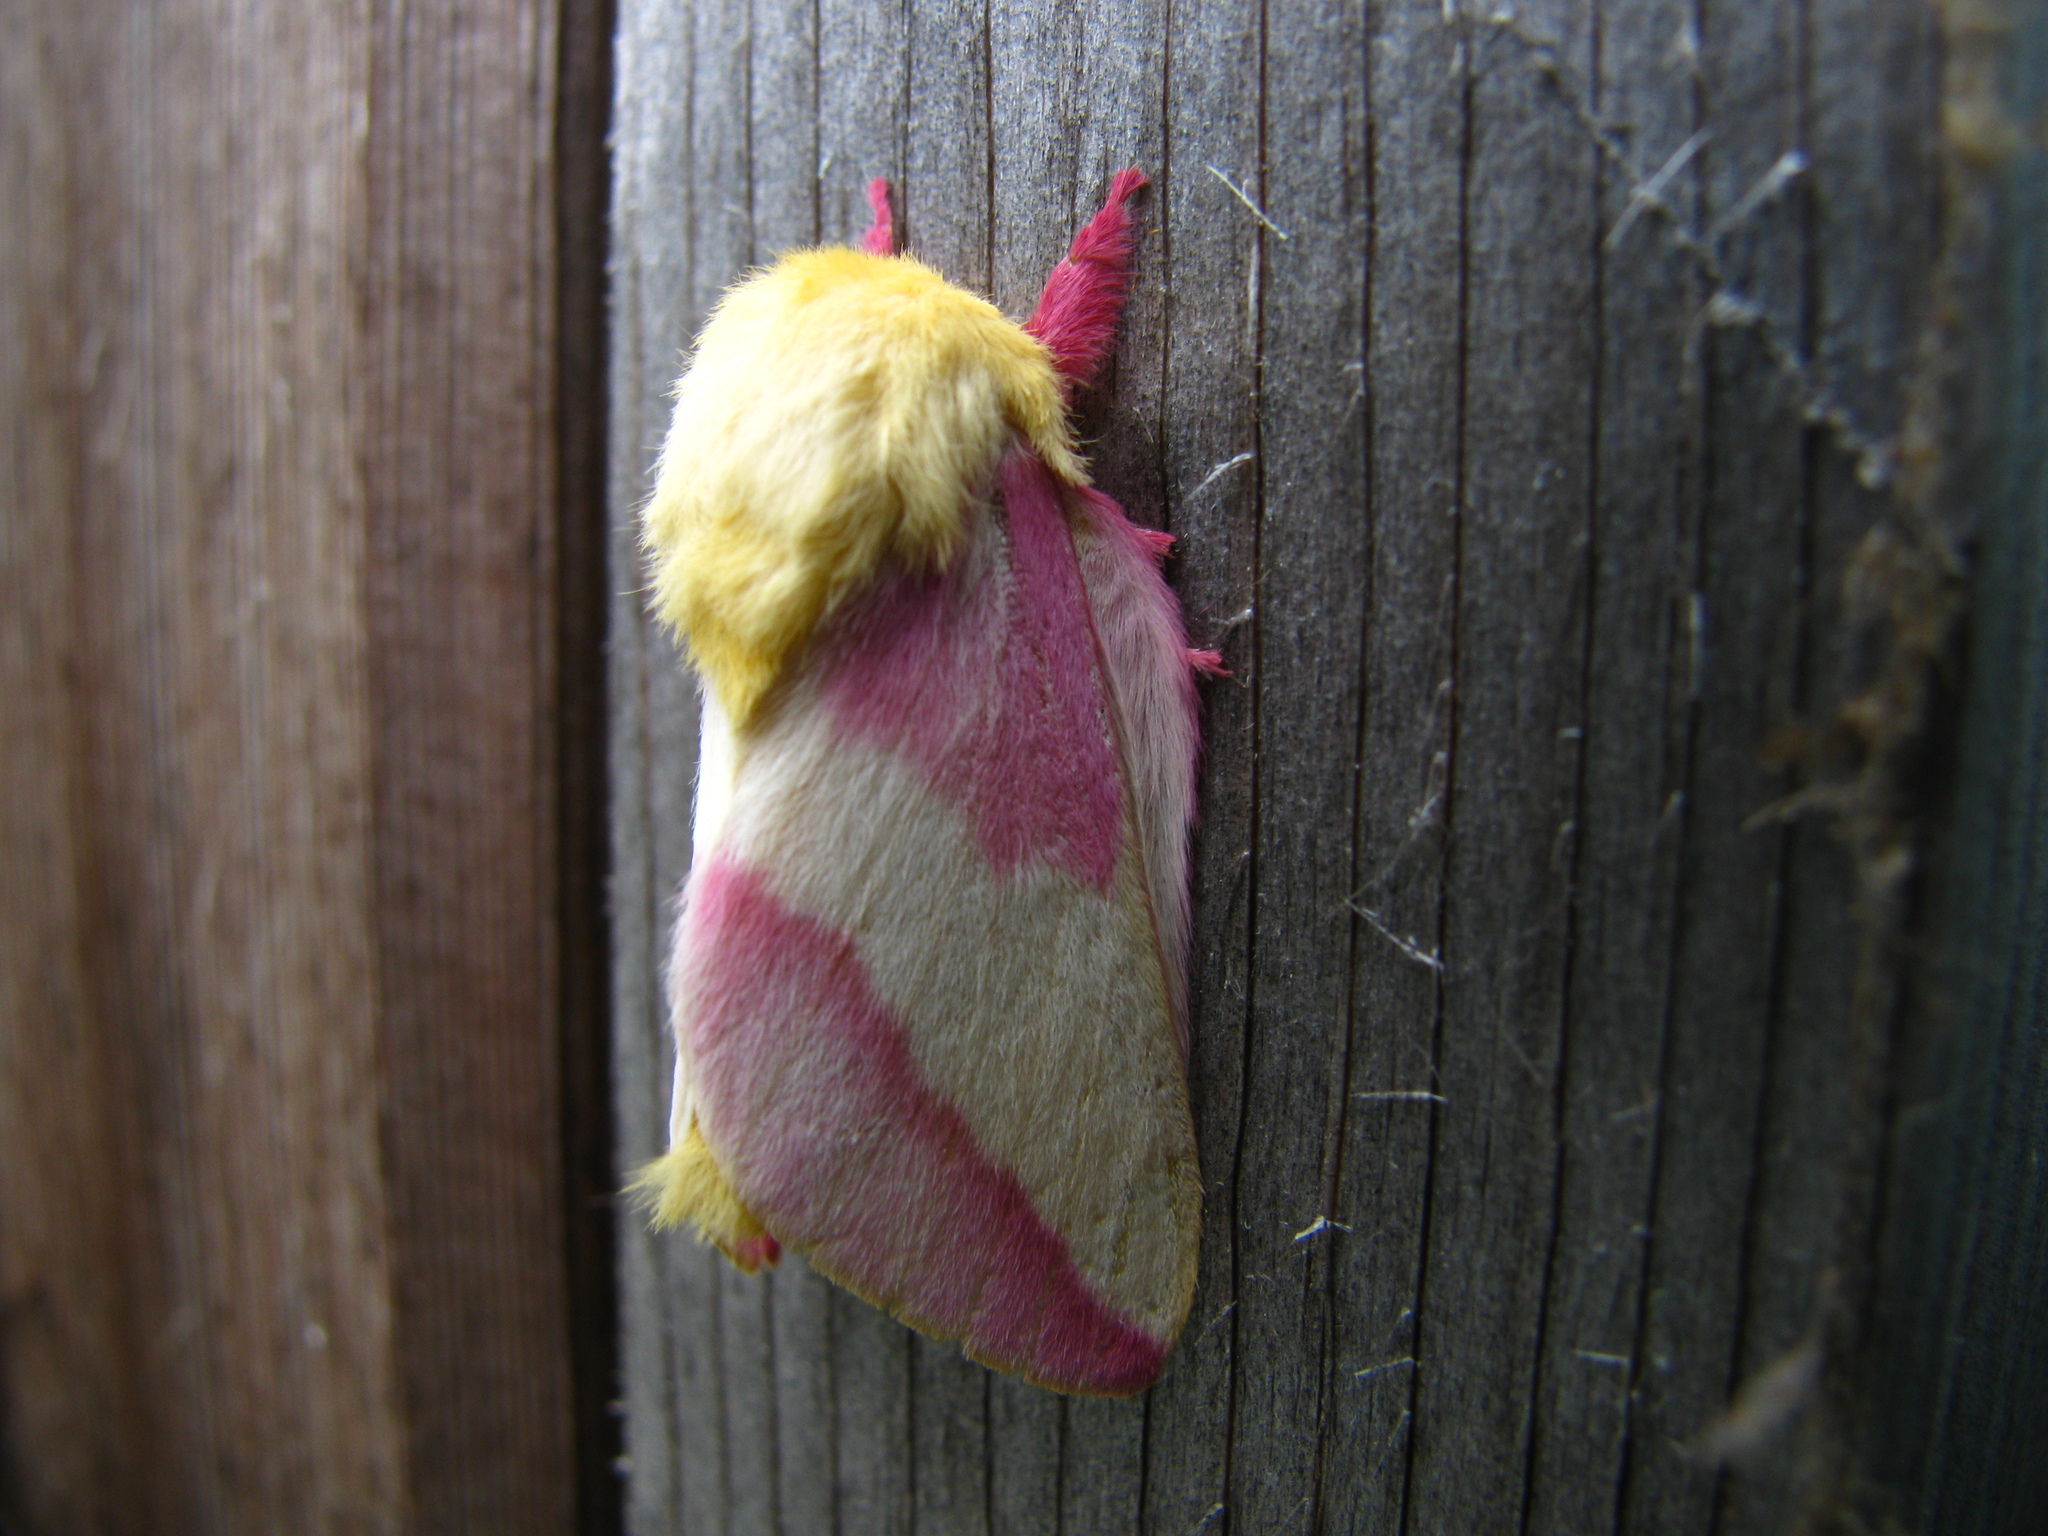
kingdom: Animalia
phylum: Arthropoda
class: Insecta
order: Lepidoptera
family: Saturniidae
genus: Dryocampa
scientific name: Dryocampa rubicunda
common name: Rosy maple moth
